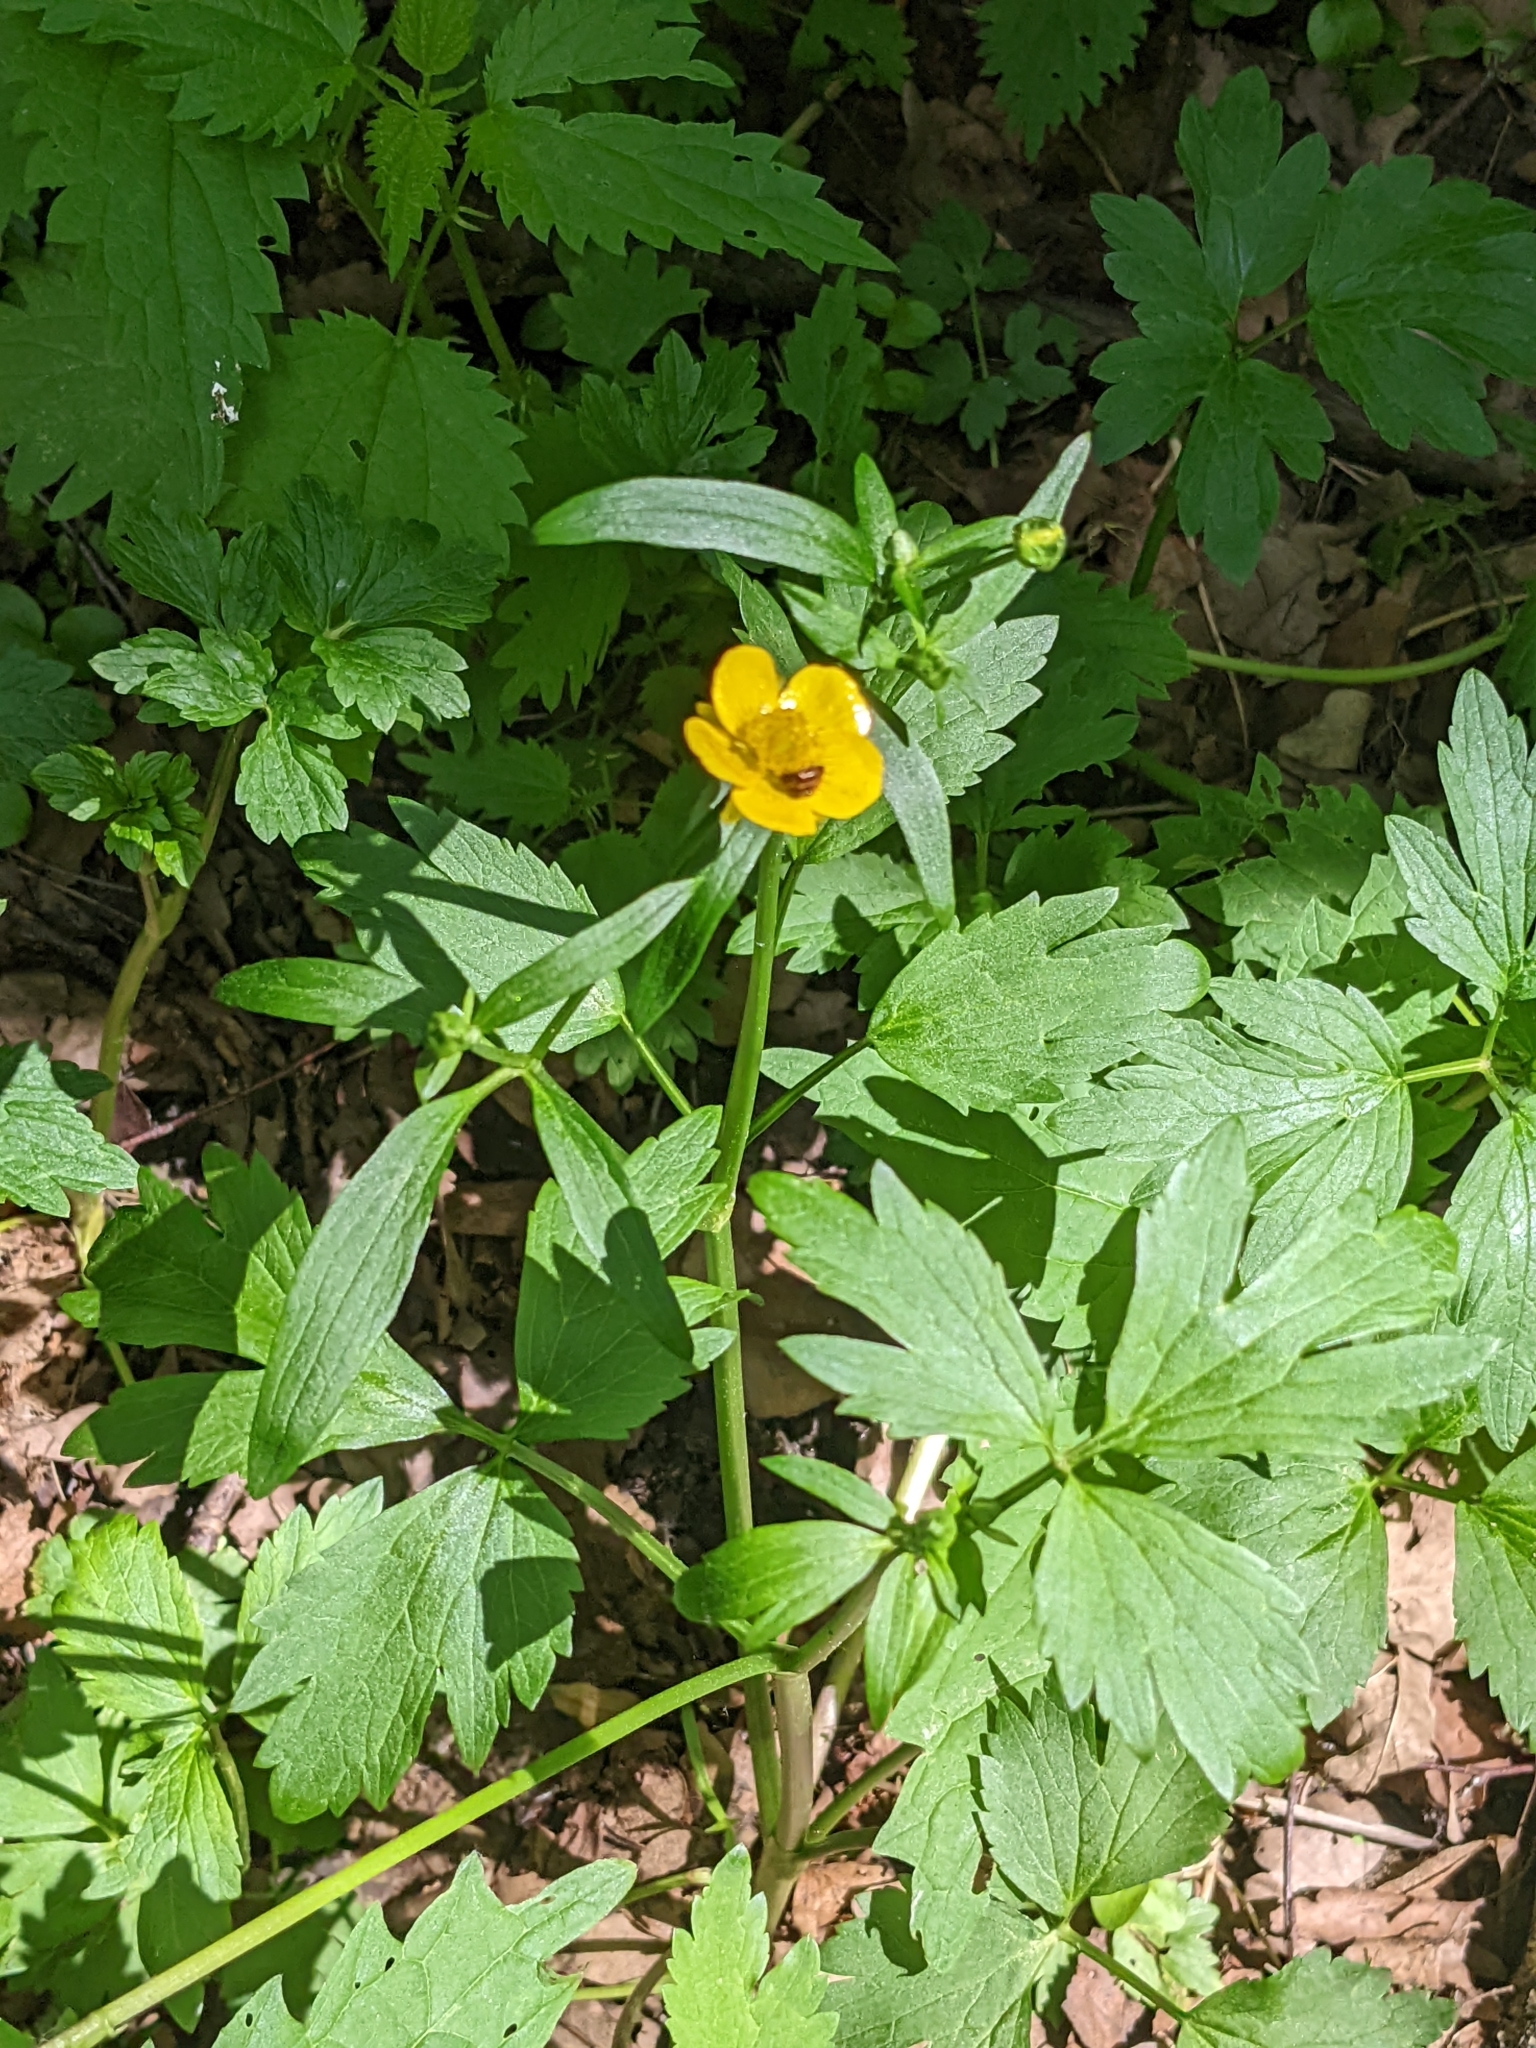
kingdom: Plantae
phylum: Tracheophyta
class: Magnoliopsida
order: Ranunculales
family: Ranunculaceae
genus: Ranunculus
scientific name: Ranunculus repens
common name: Creeping buttercup
